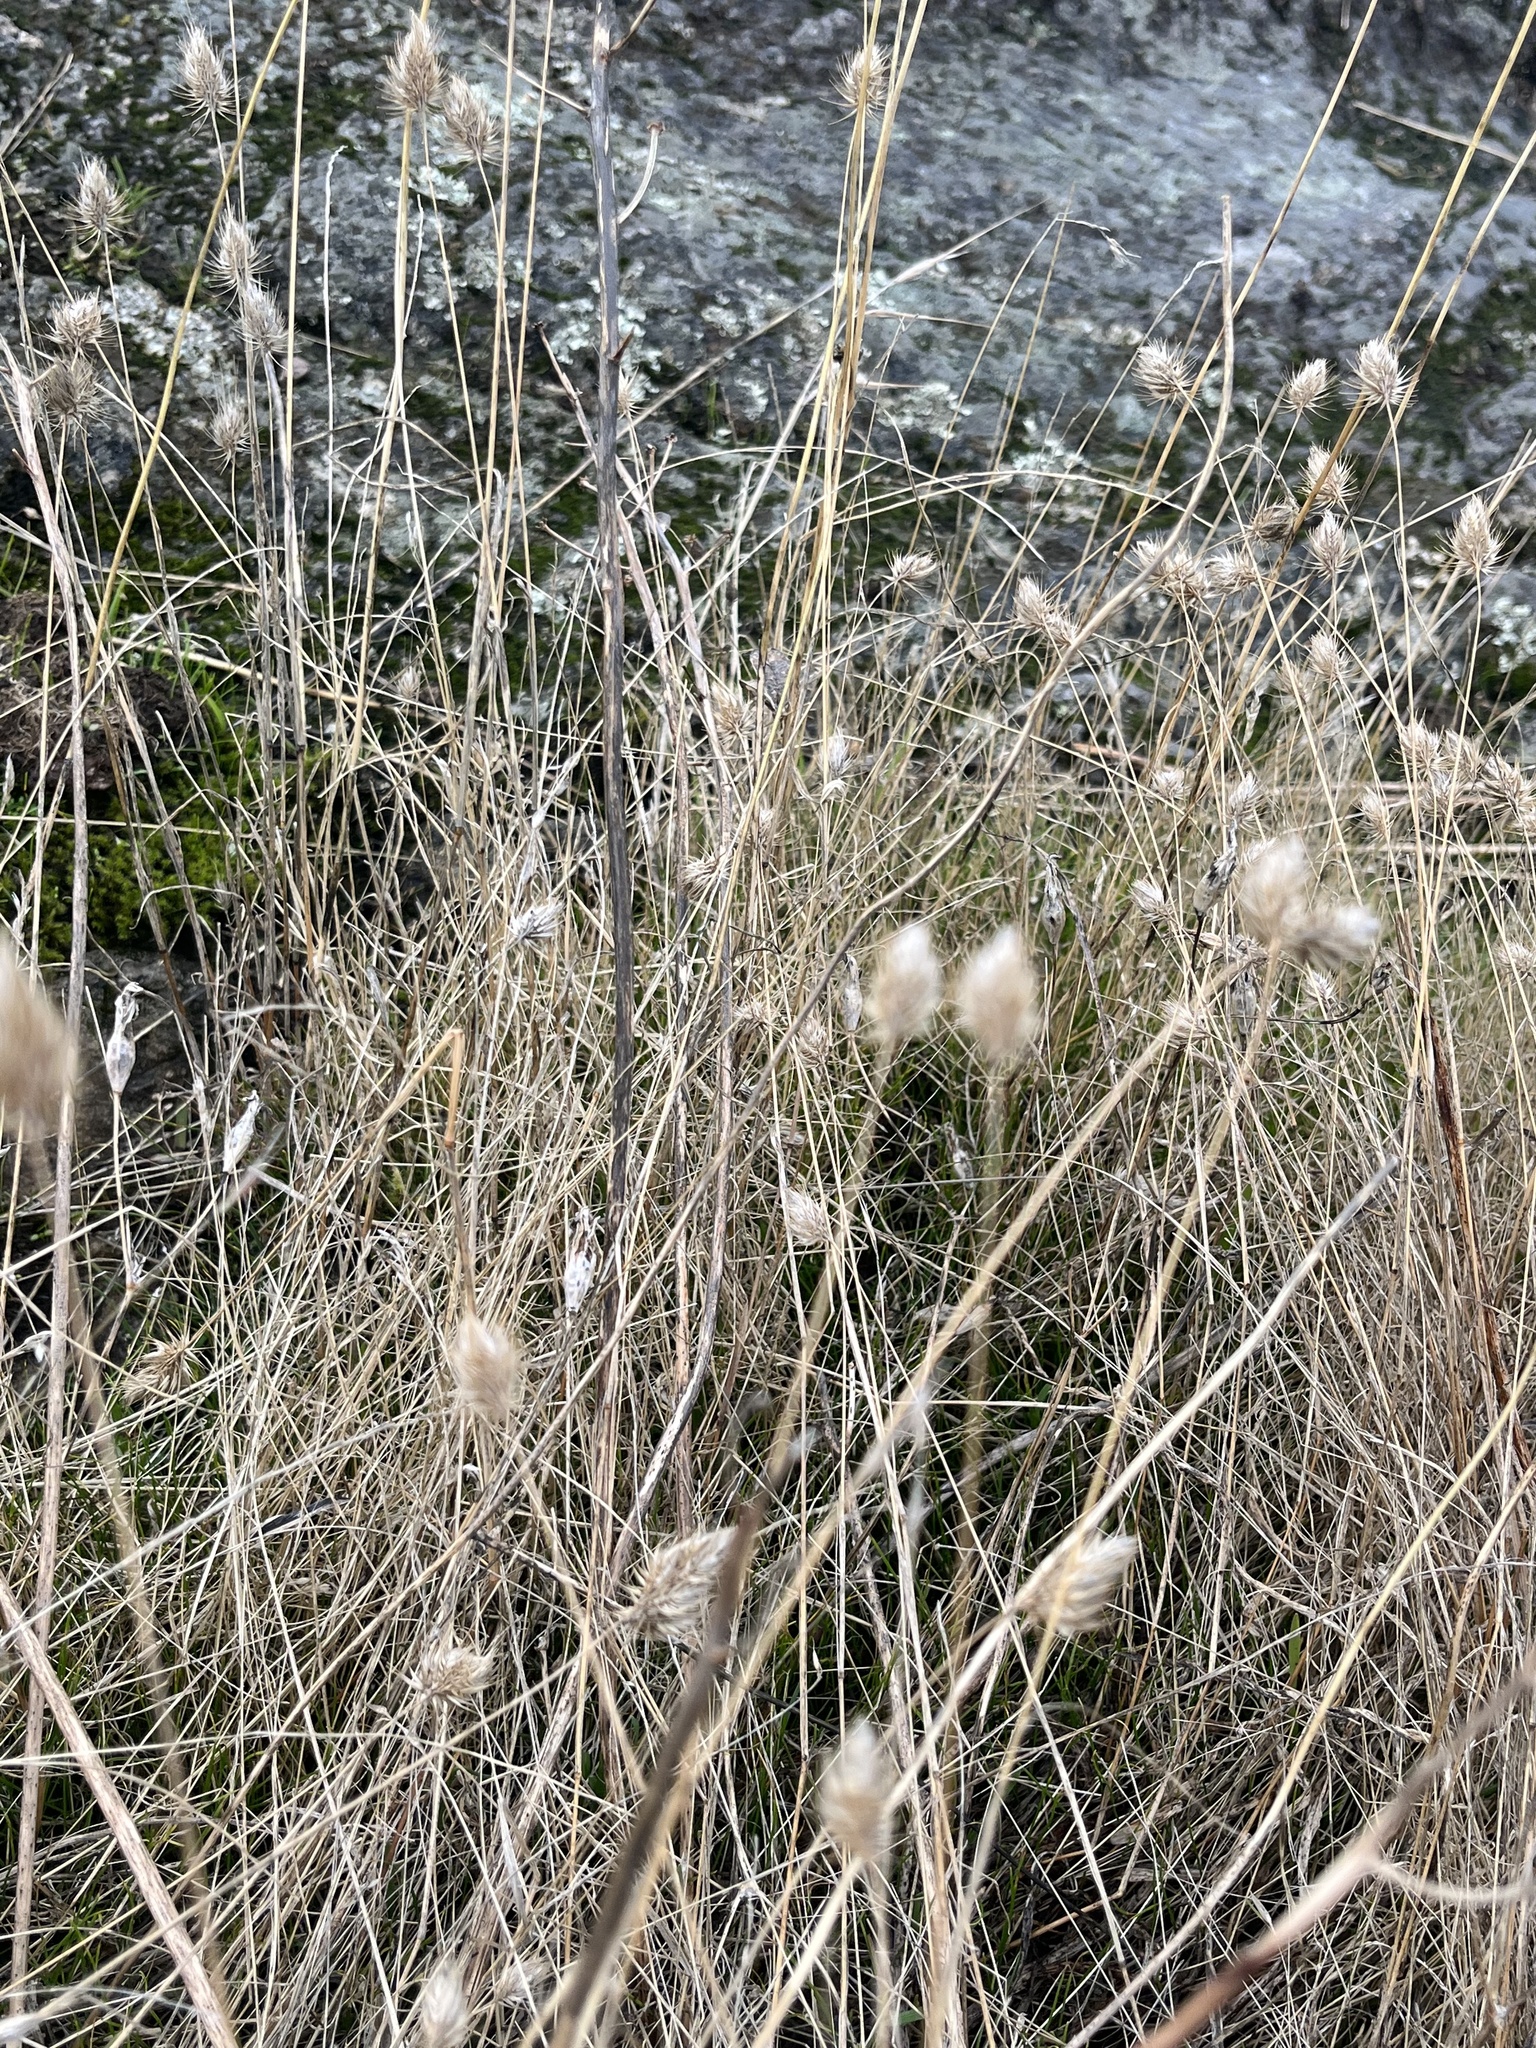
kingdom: Plantae
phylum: Tracheophyta
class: Liliopsida
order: Poales
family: Poaceae
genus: Cynosurus
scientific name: Cynosurus echinatus
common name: Rough dog's-tail
